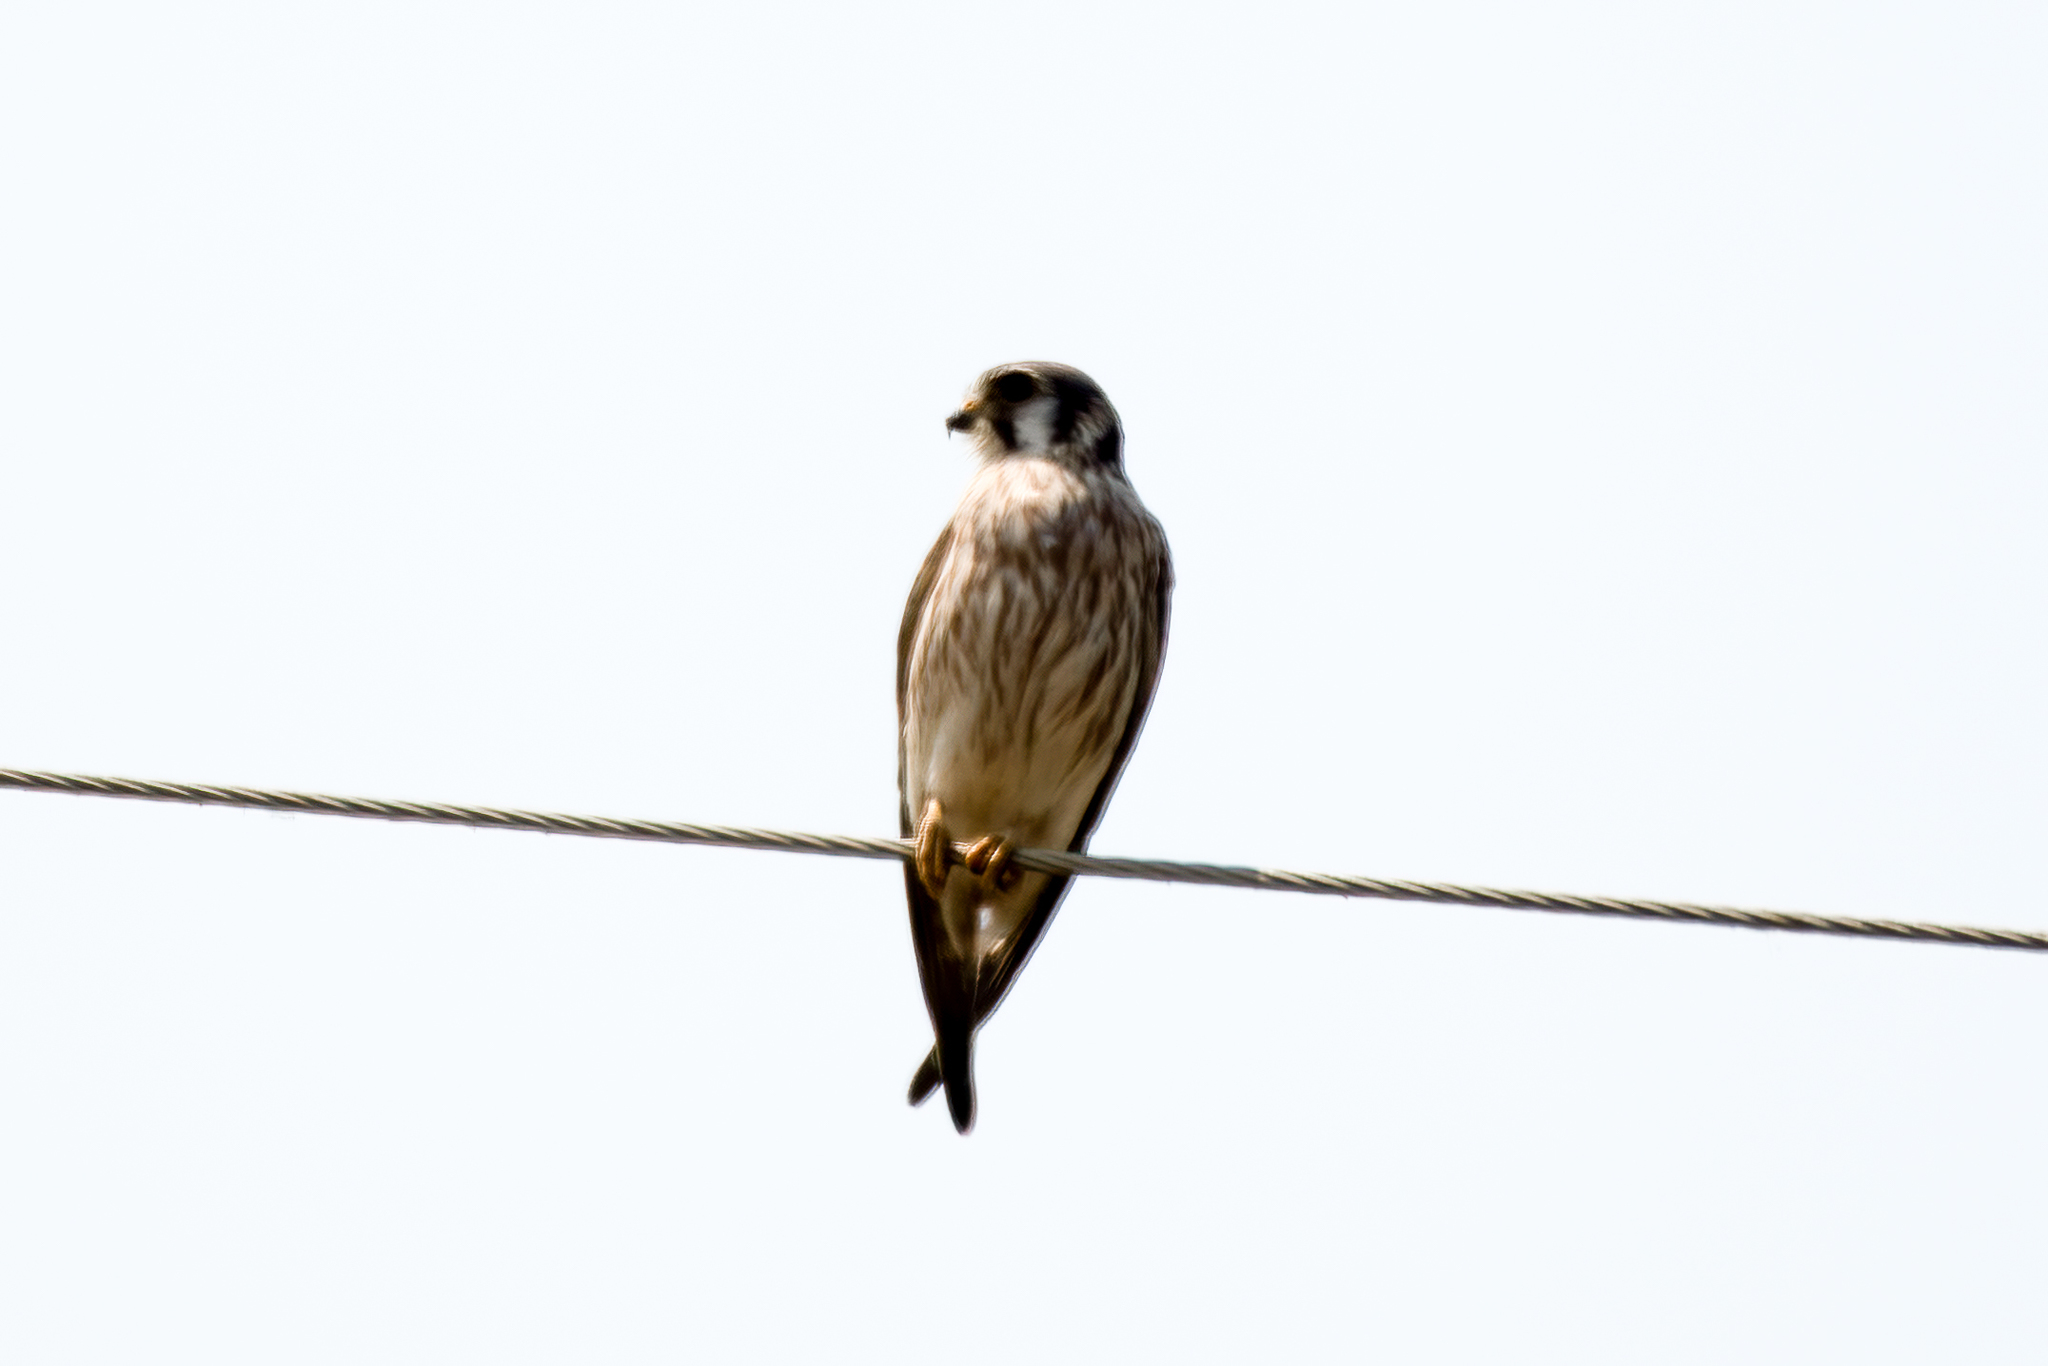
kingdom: Animalia
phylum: Chordata
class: Aves
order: Falconiformes
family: Falconidae
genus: Falco
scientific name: Falco sparverius
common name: American kestrel
